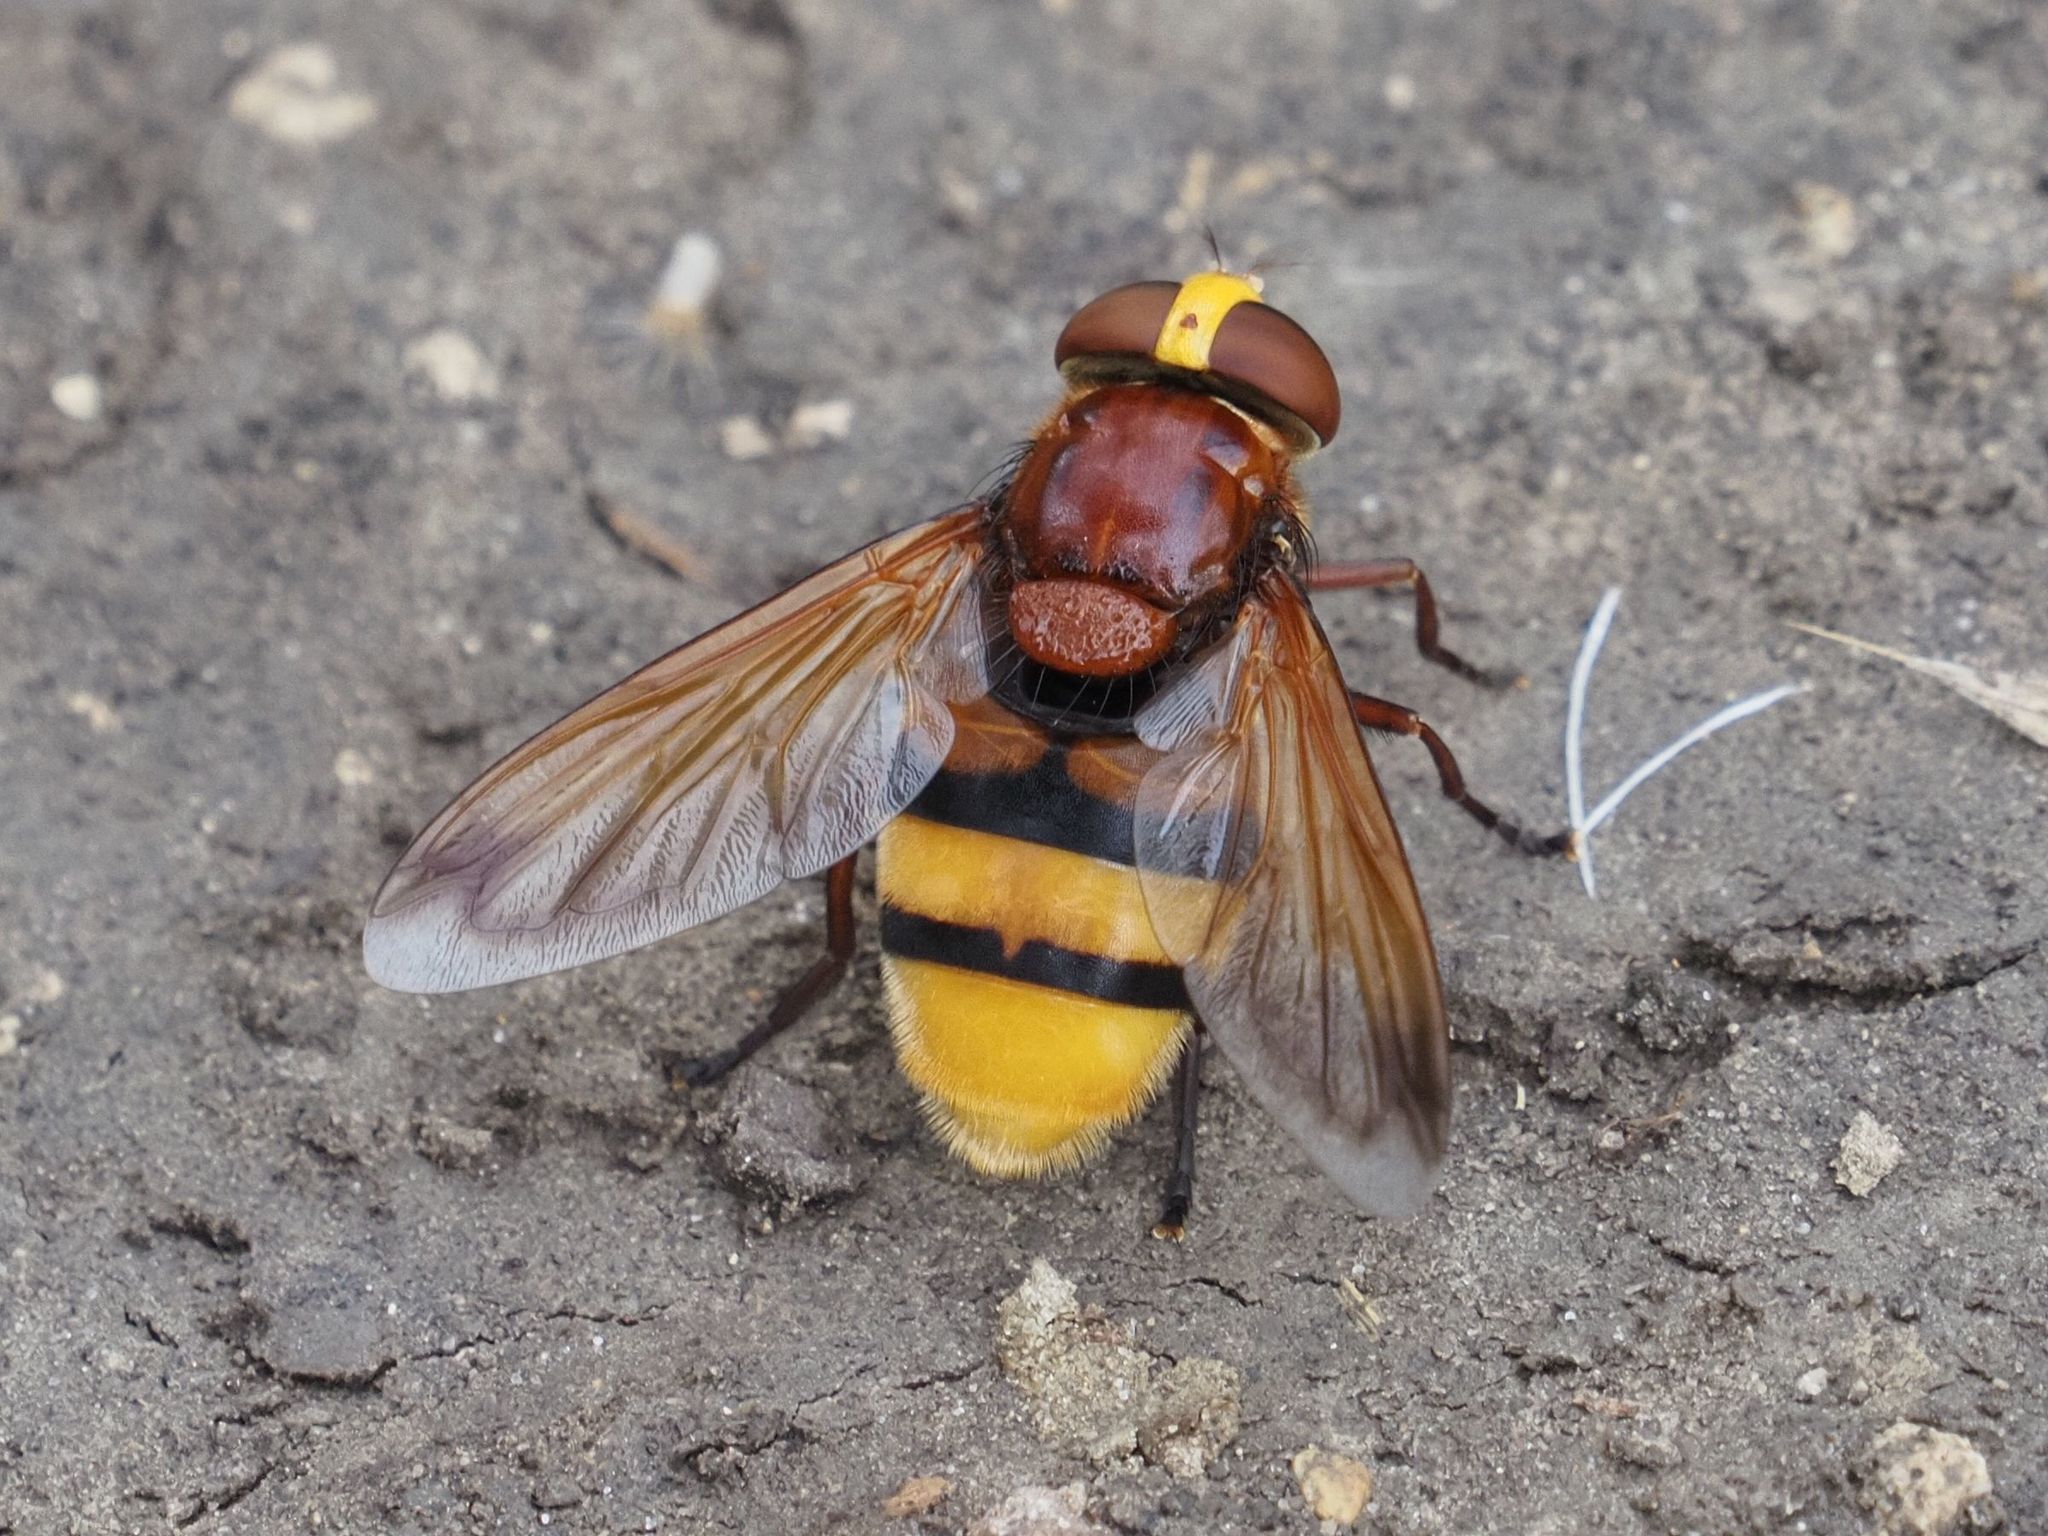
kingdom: Animalia
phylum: Arthropoda
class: Insecta
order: Diptera
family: Syrphidae
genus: Volucella
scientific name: Volucella zonaria
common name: Hornet hoverfly
